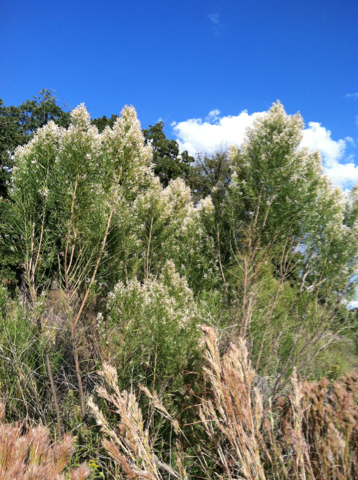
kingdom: Plantae
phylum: Tracheophyta
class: Magnoliopsida
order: Asterales
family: Asteraceae
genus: Baccharis
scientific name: Baccharis neglecta
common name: Roosevelt-weed
